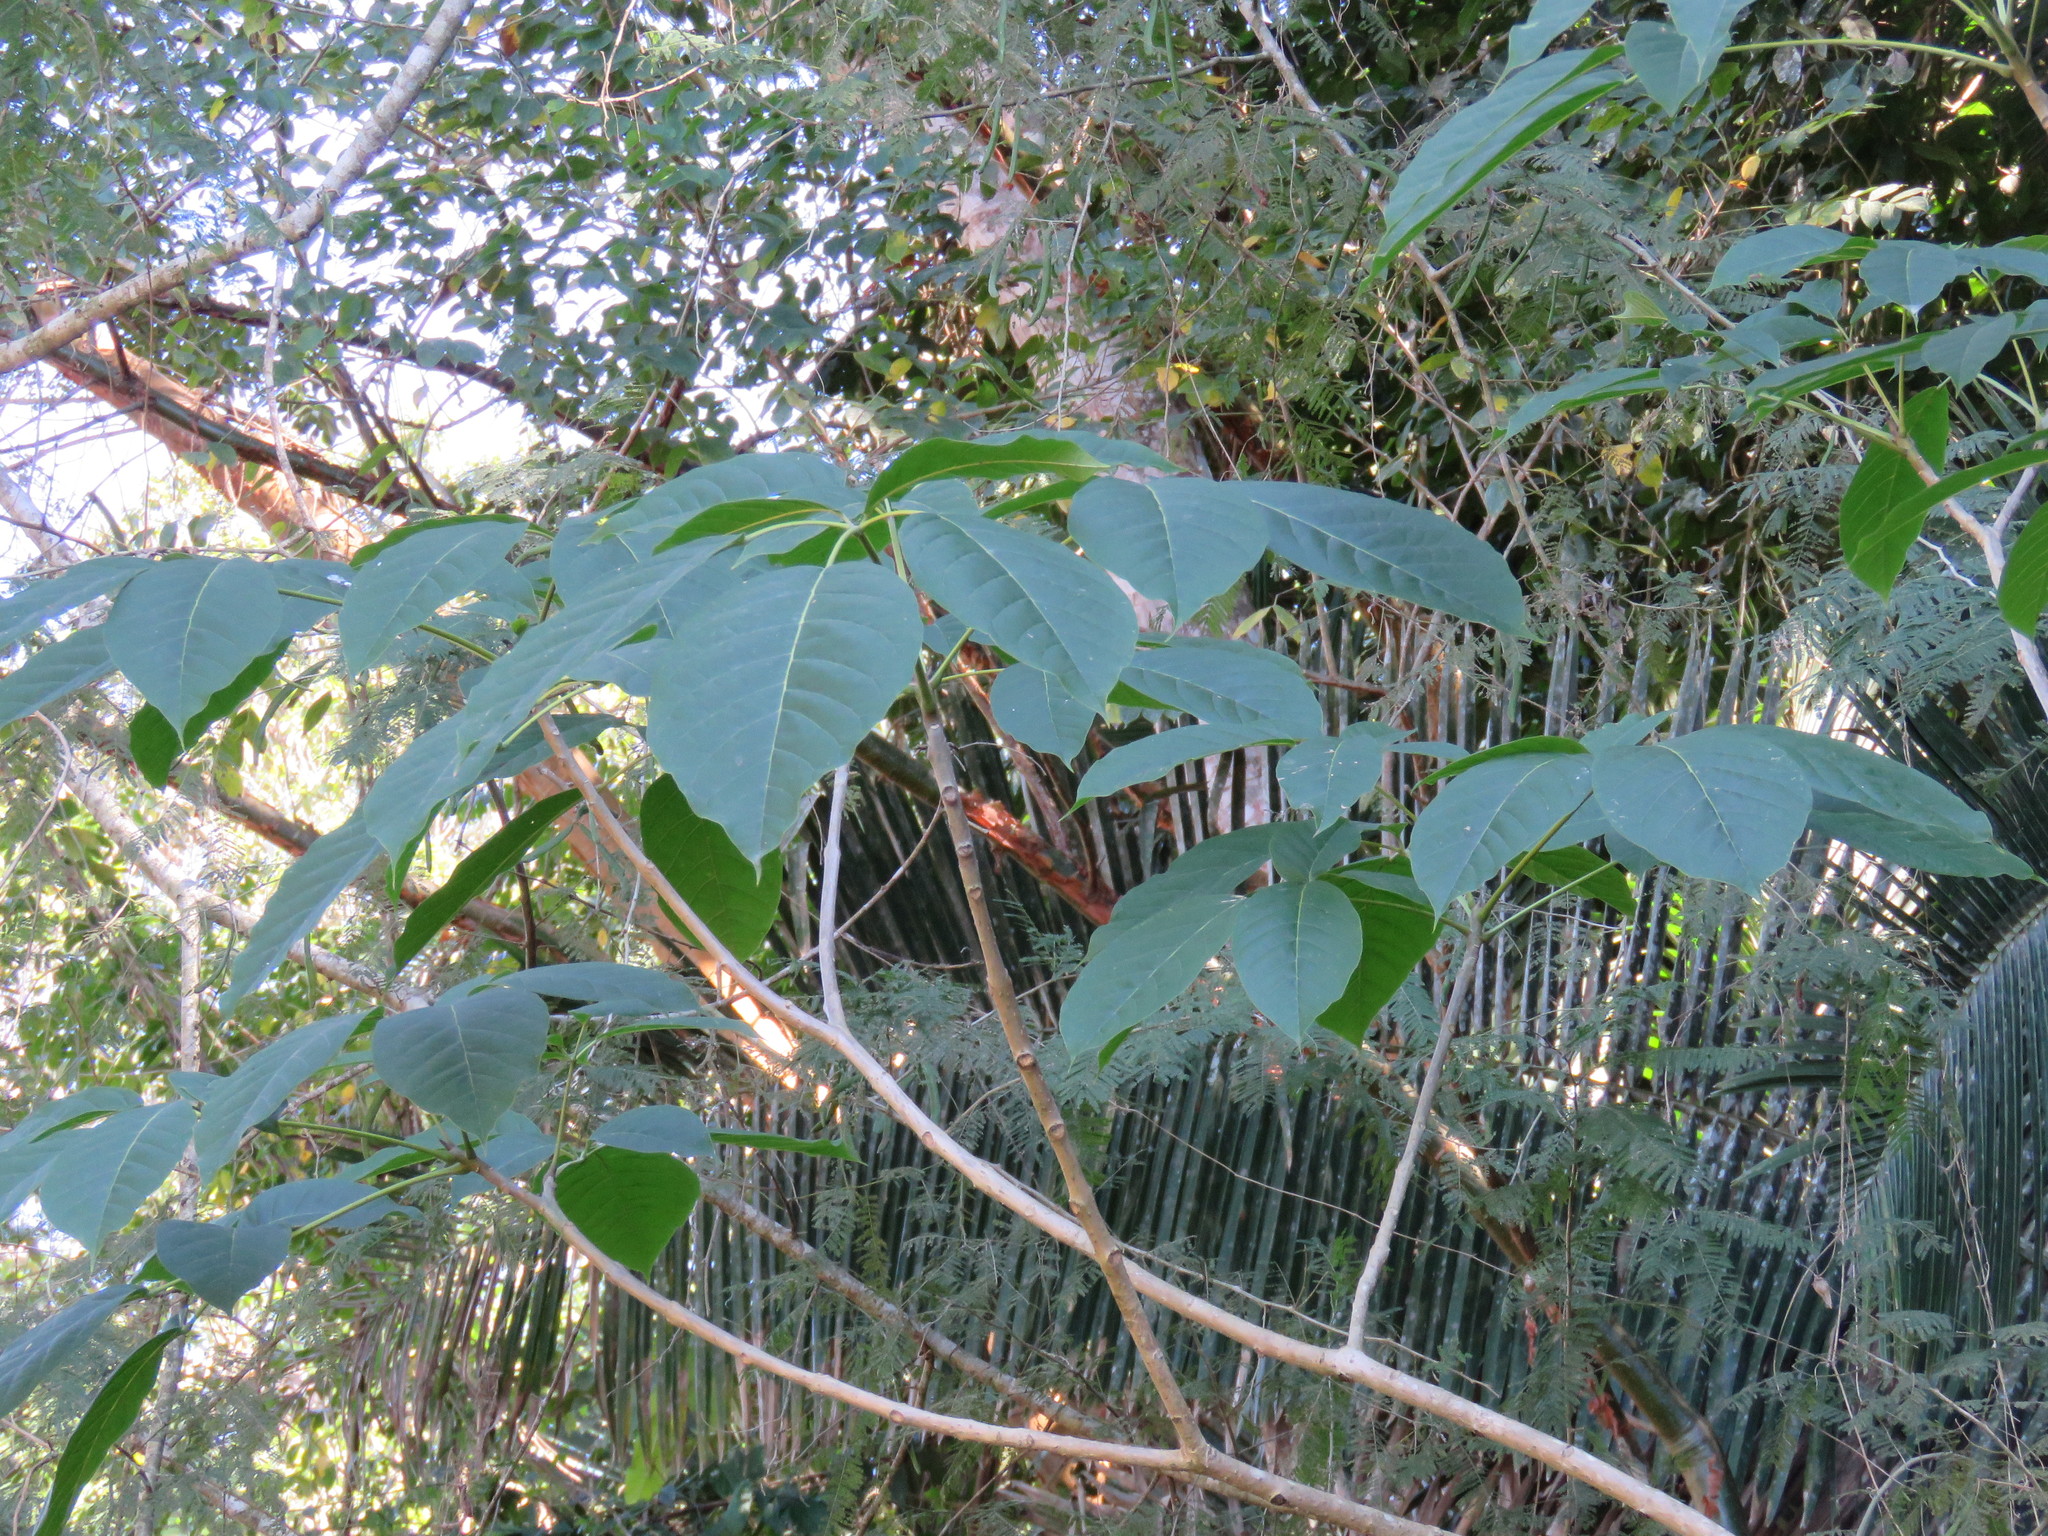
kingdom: Plantae
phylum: Tracheophyta
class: Magnoliopsida
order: Lamiales
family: Bignoniaceae
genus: Tabebuia
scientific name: Tabebuia rosea
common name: Pink poui
